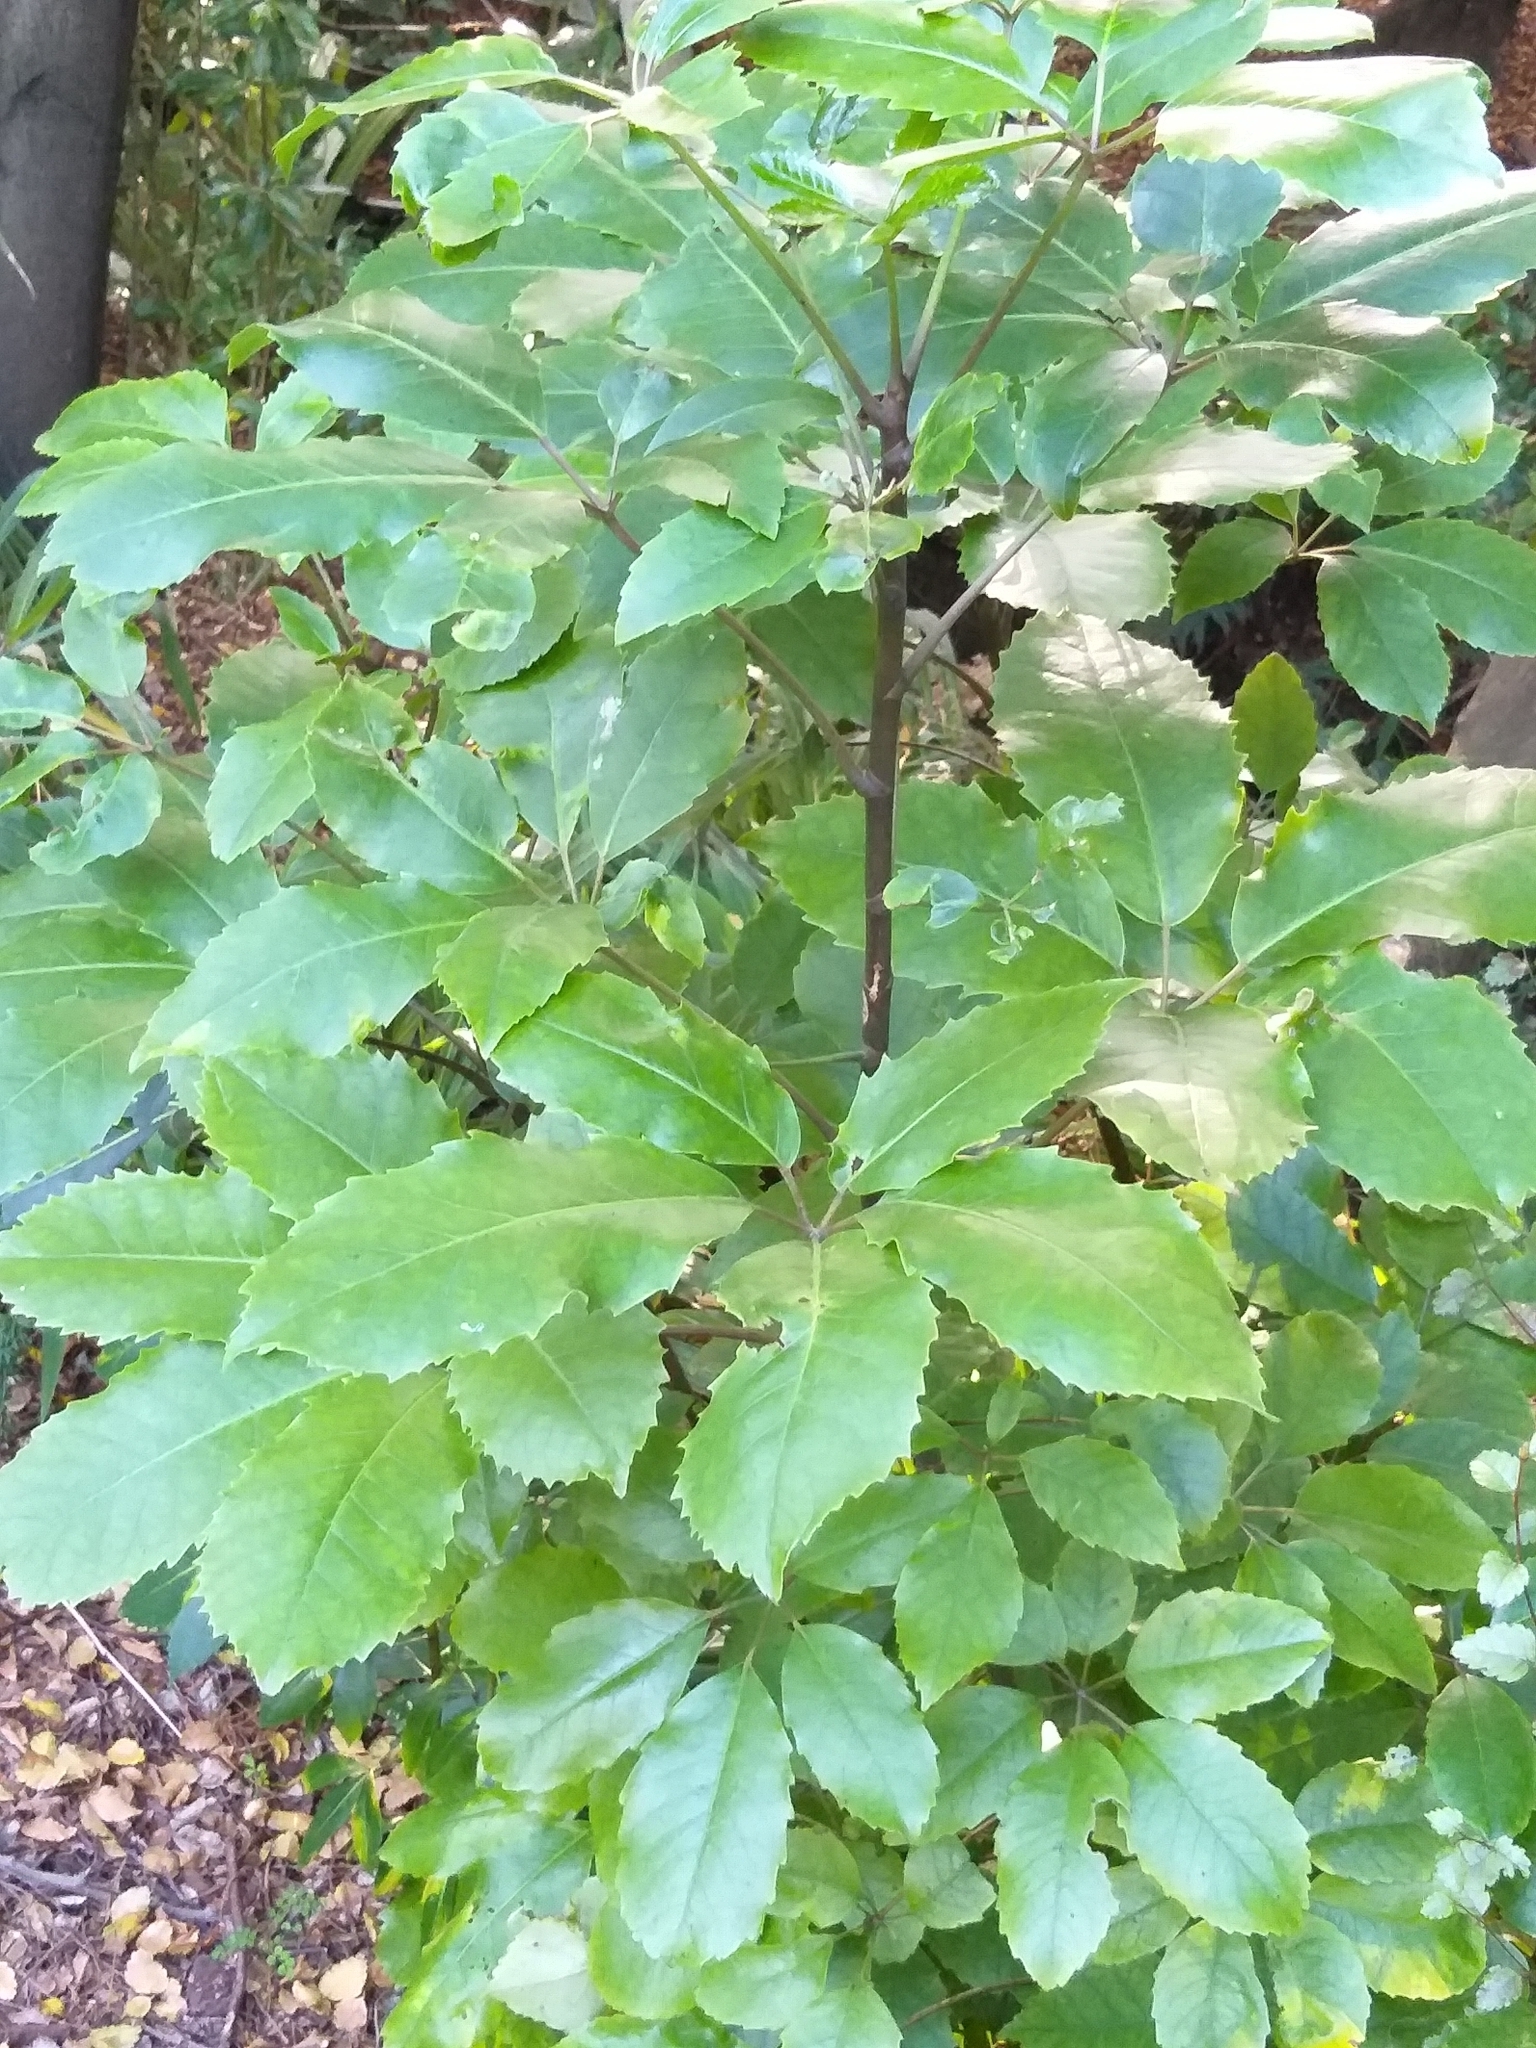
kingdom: Plantae
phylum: Tracheophyta
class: Magnoliopsida
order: Apiales
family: Araliaceae
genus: Neopanax
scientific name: Neopanax arboreus
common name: Five-fingers
